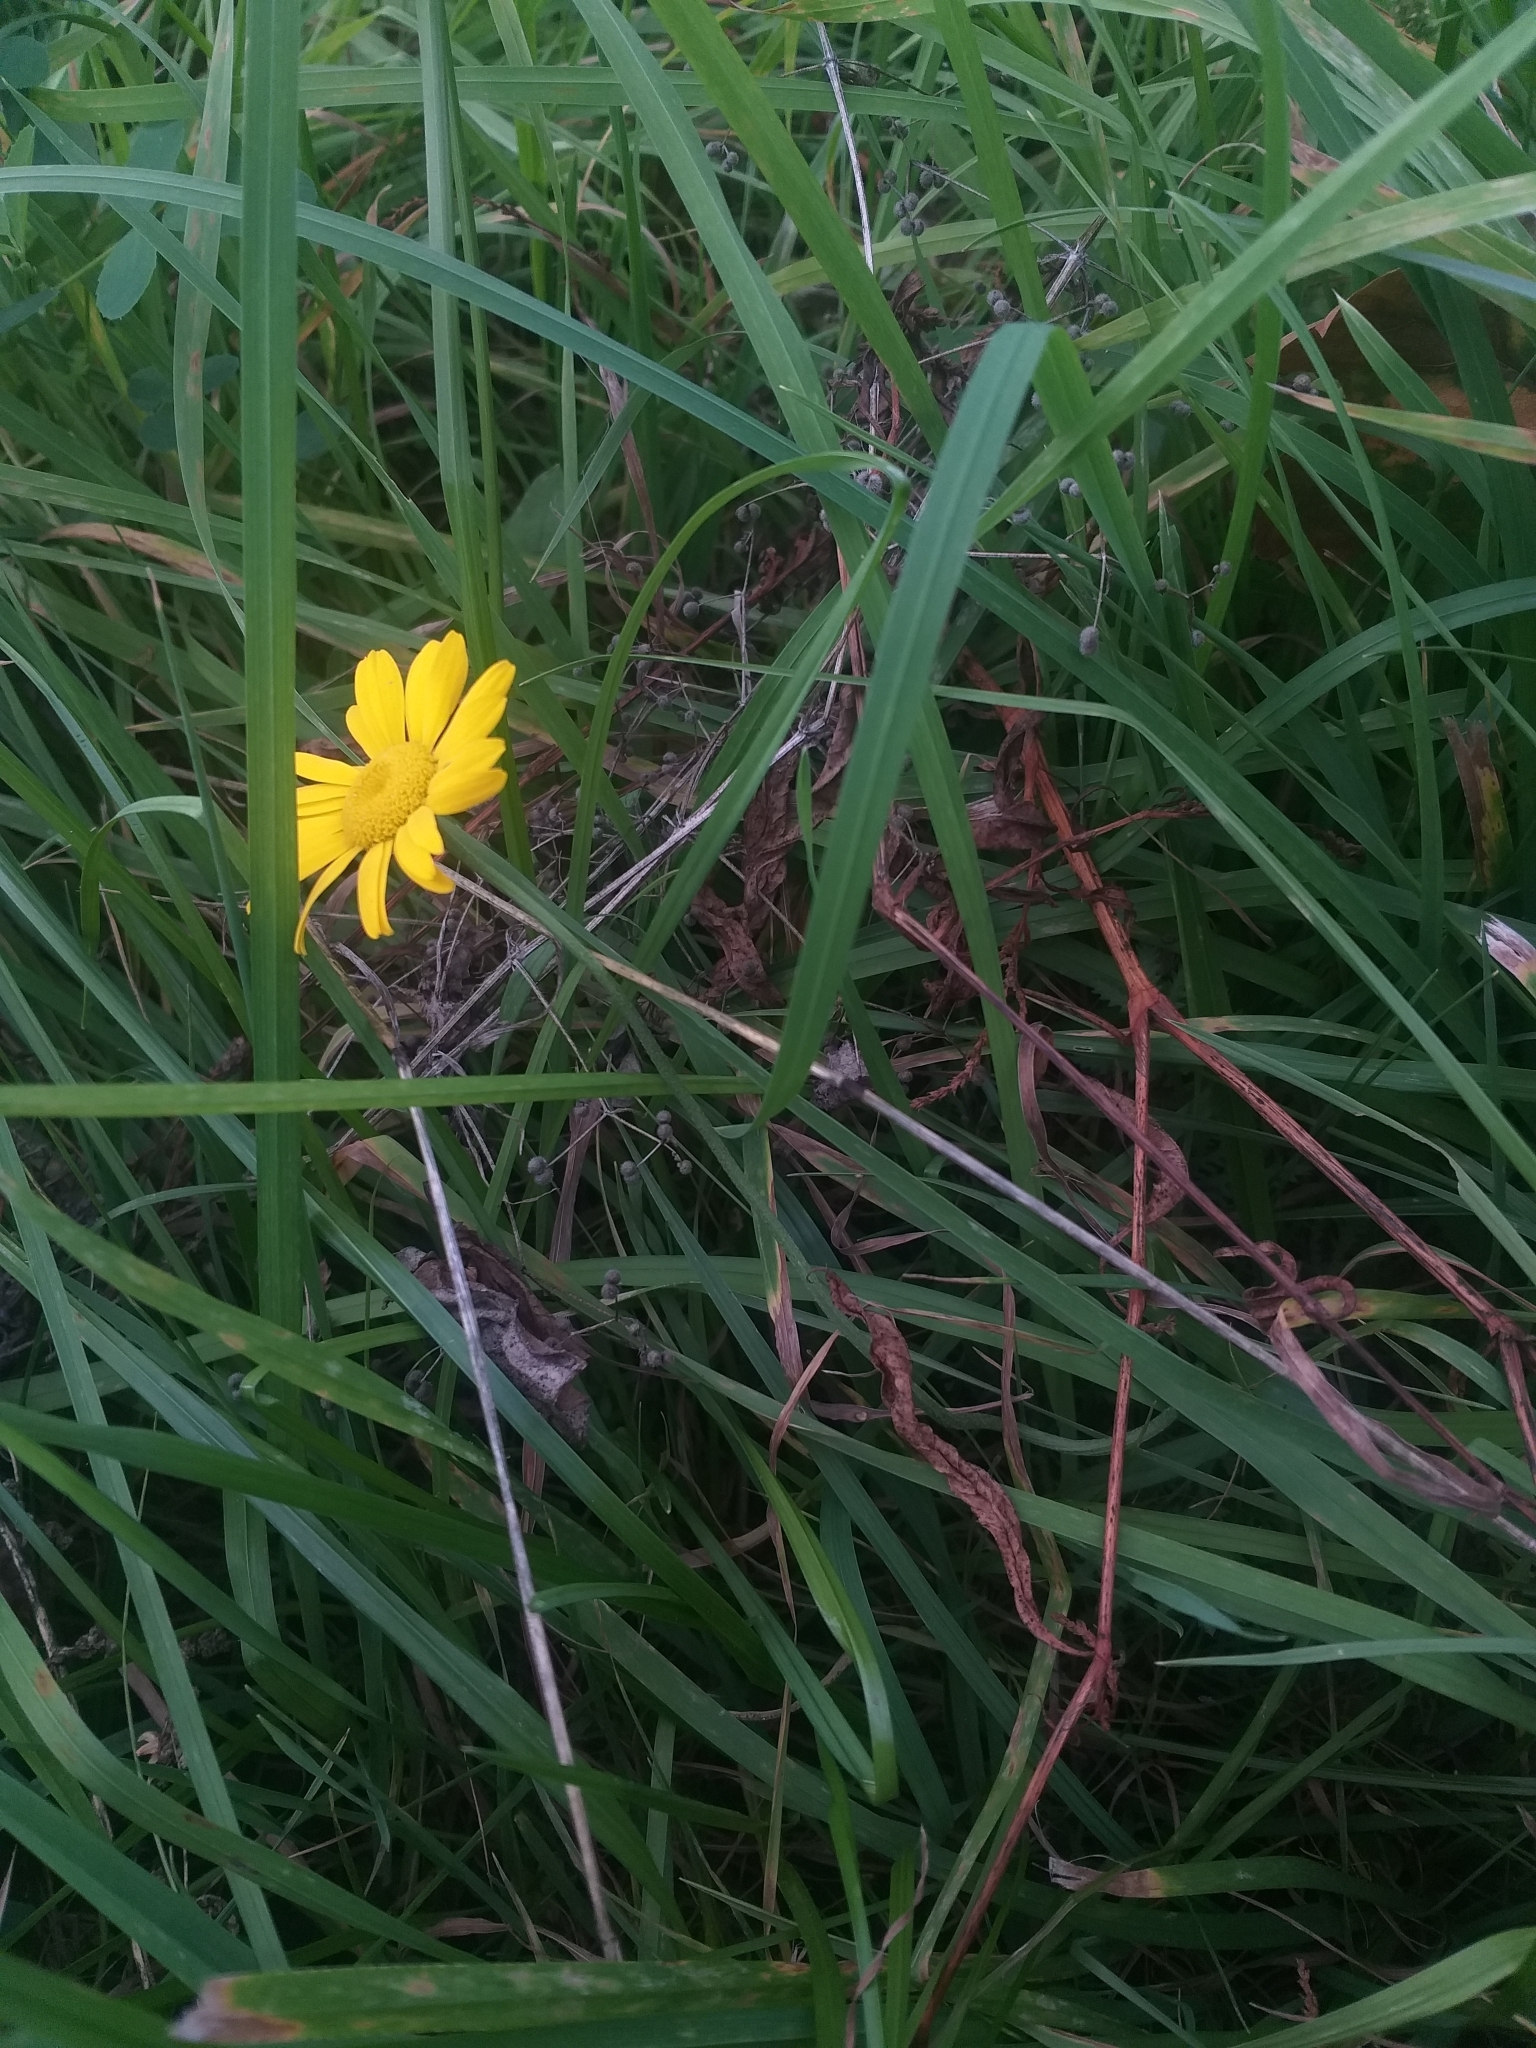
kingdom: Plantae
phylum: Tracheophyta
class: Magnoliopsida
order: Asterales
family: Asteraceae
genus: Cota
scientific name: Cota tinctoria
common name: Golden chamomile
